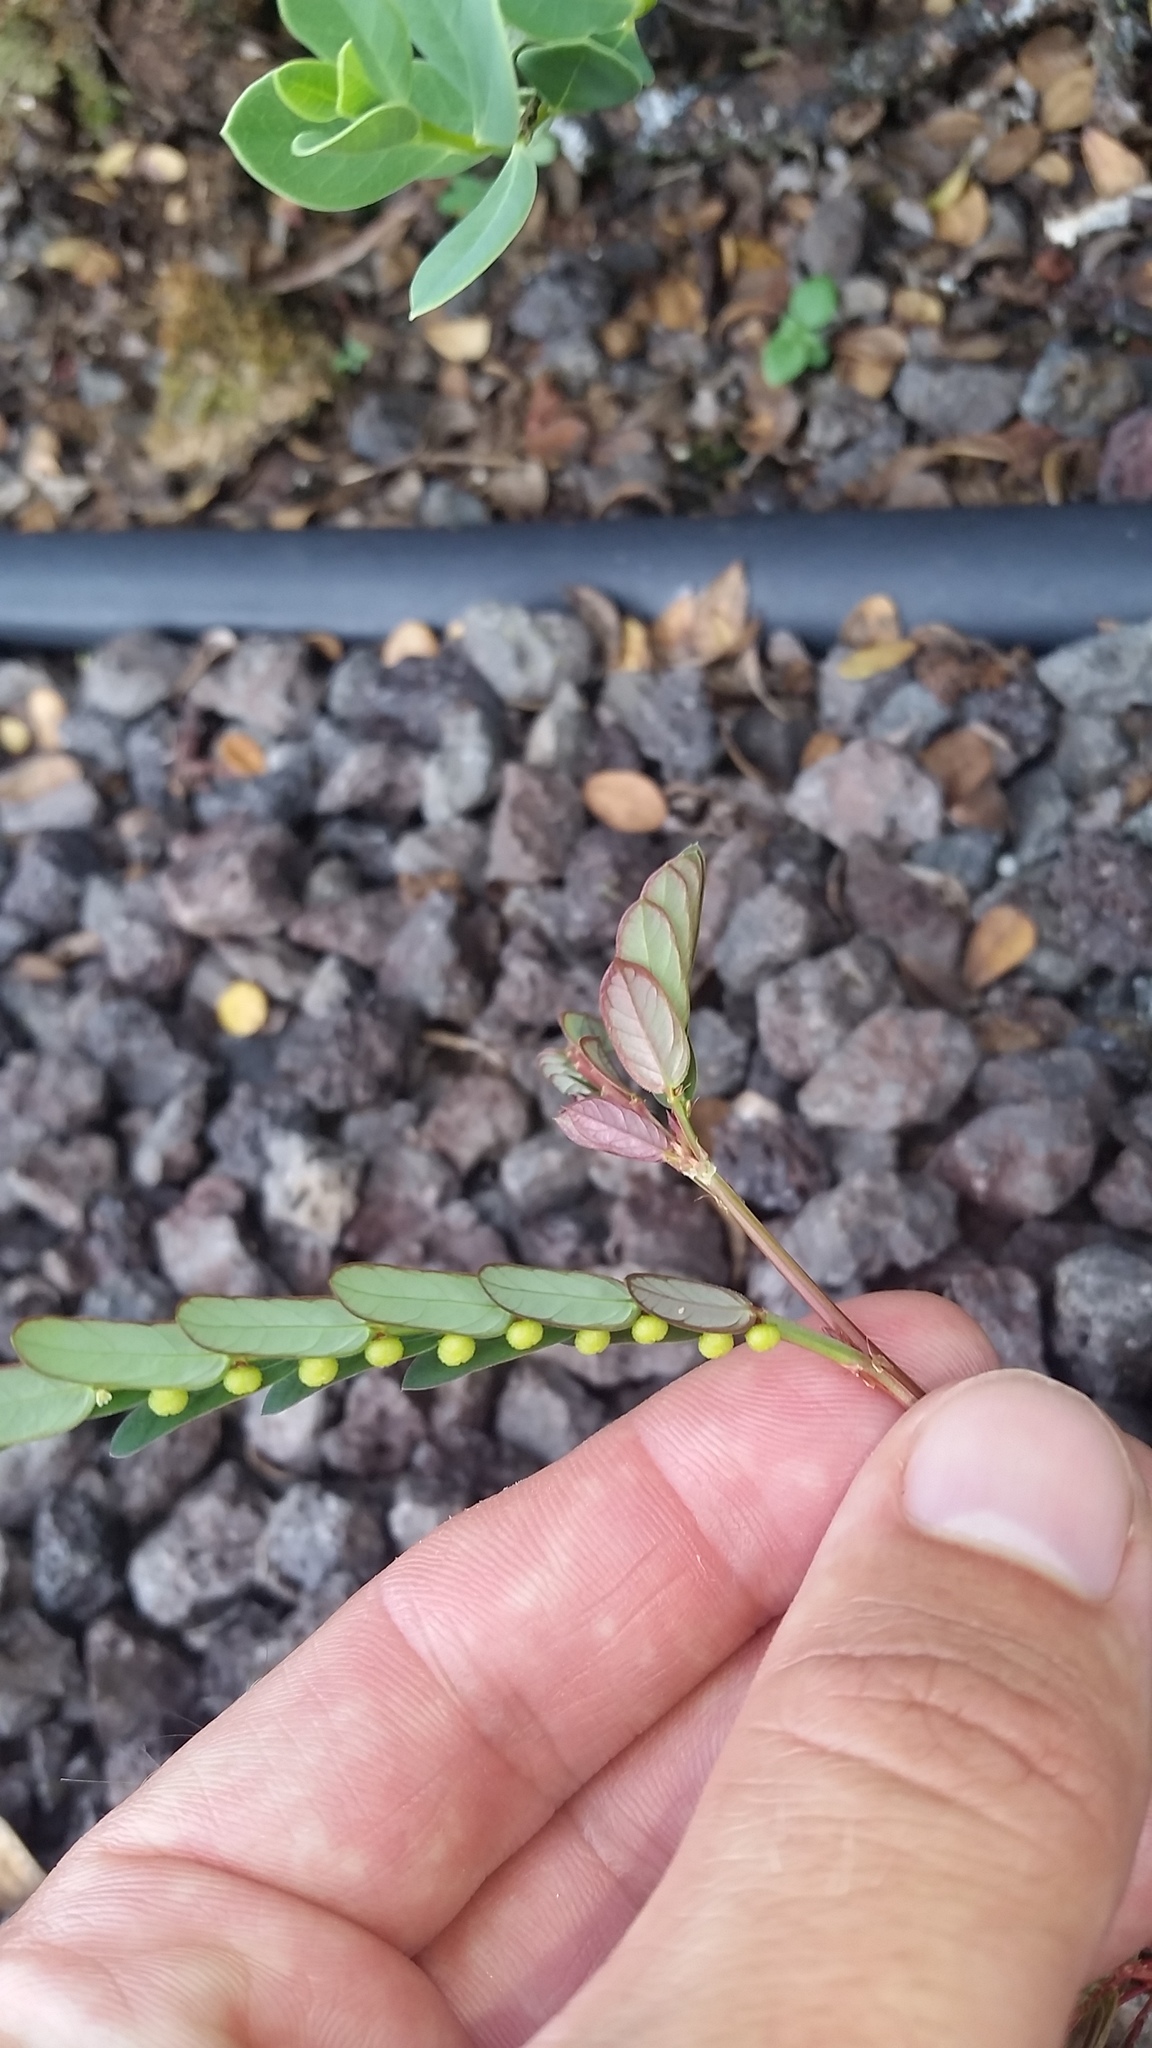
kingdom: Plantae
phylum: Tracheophyta
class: Magnoliopsida
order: Malpighiales
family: Phyllanthaceae
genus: Phyllanthus
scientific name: Phyllanthus urinaria
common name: Chamber bitter
